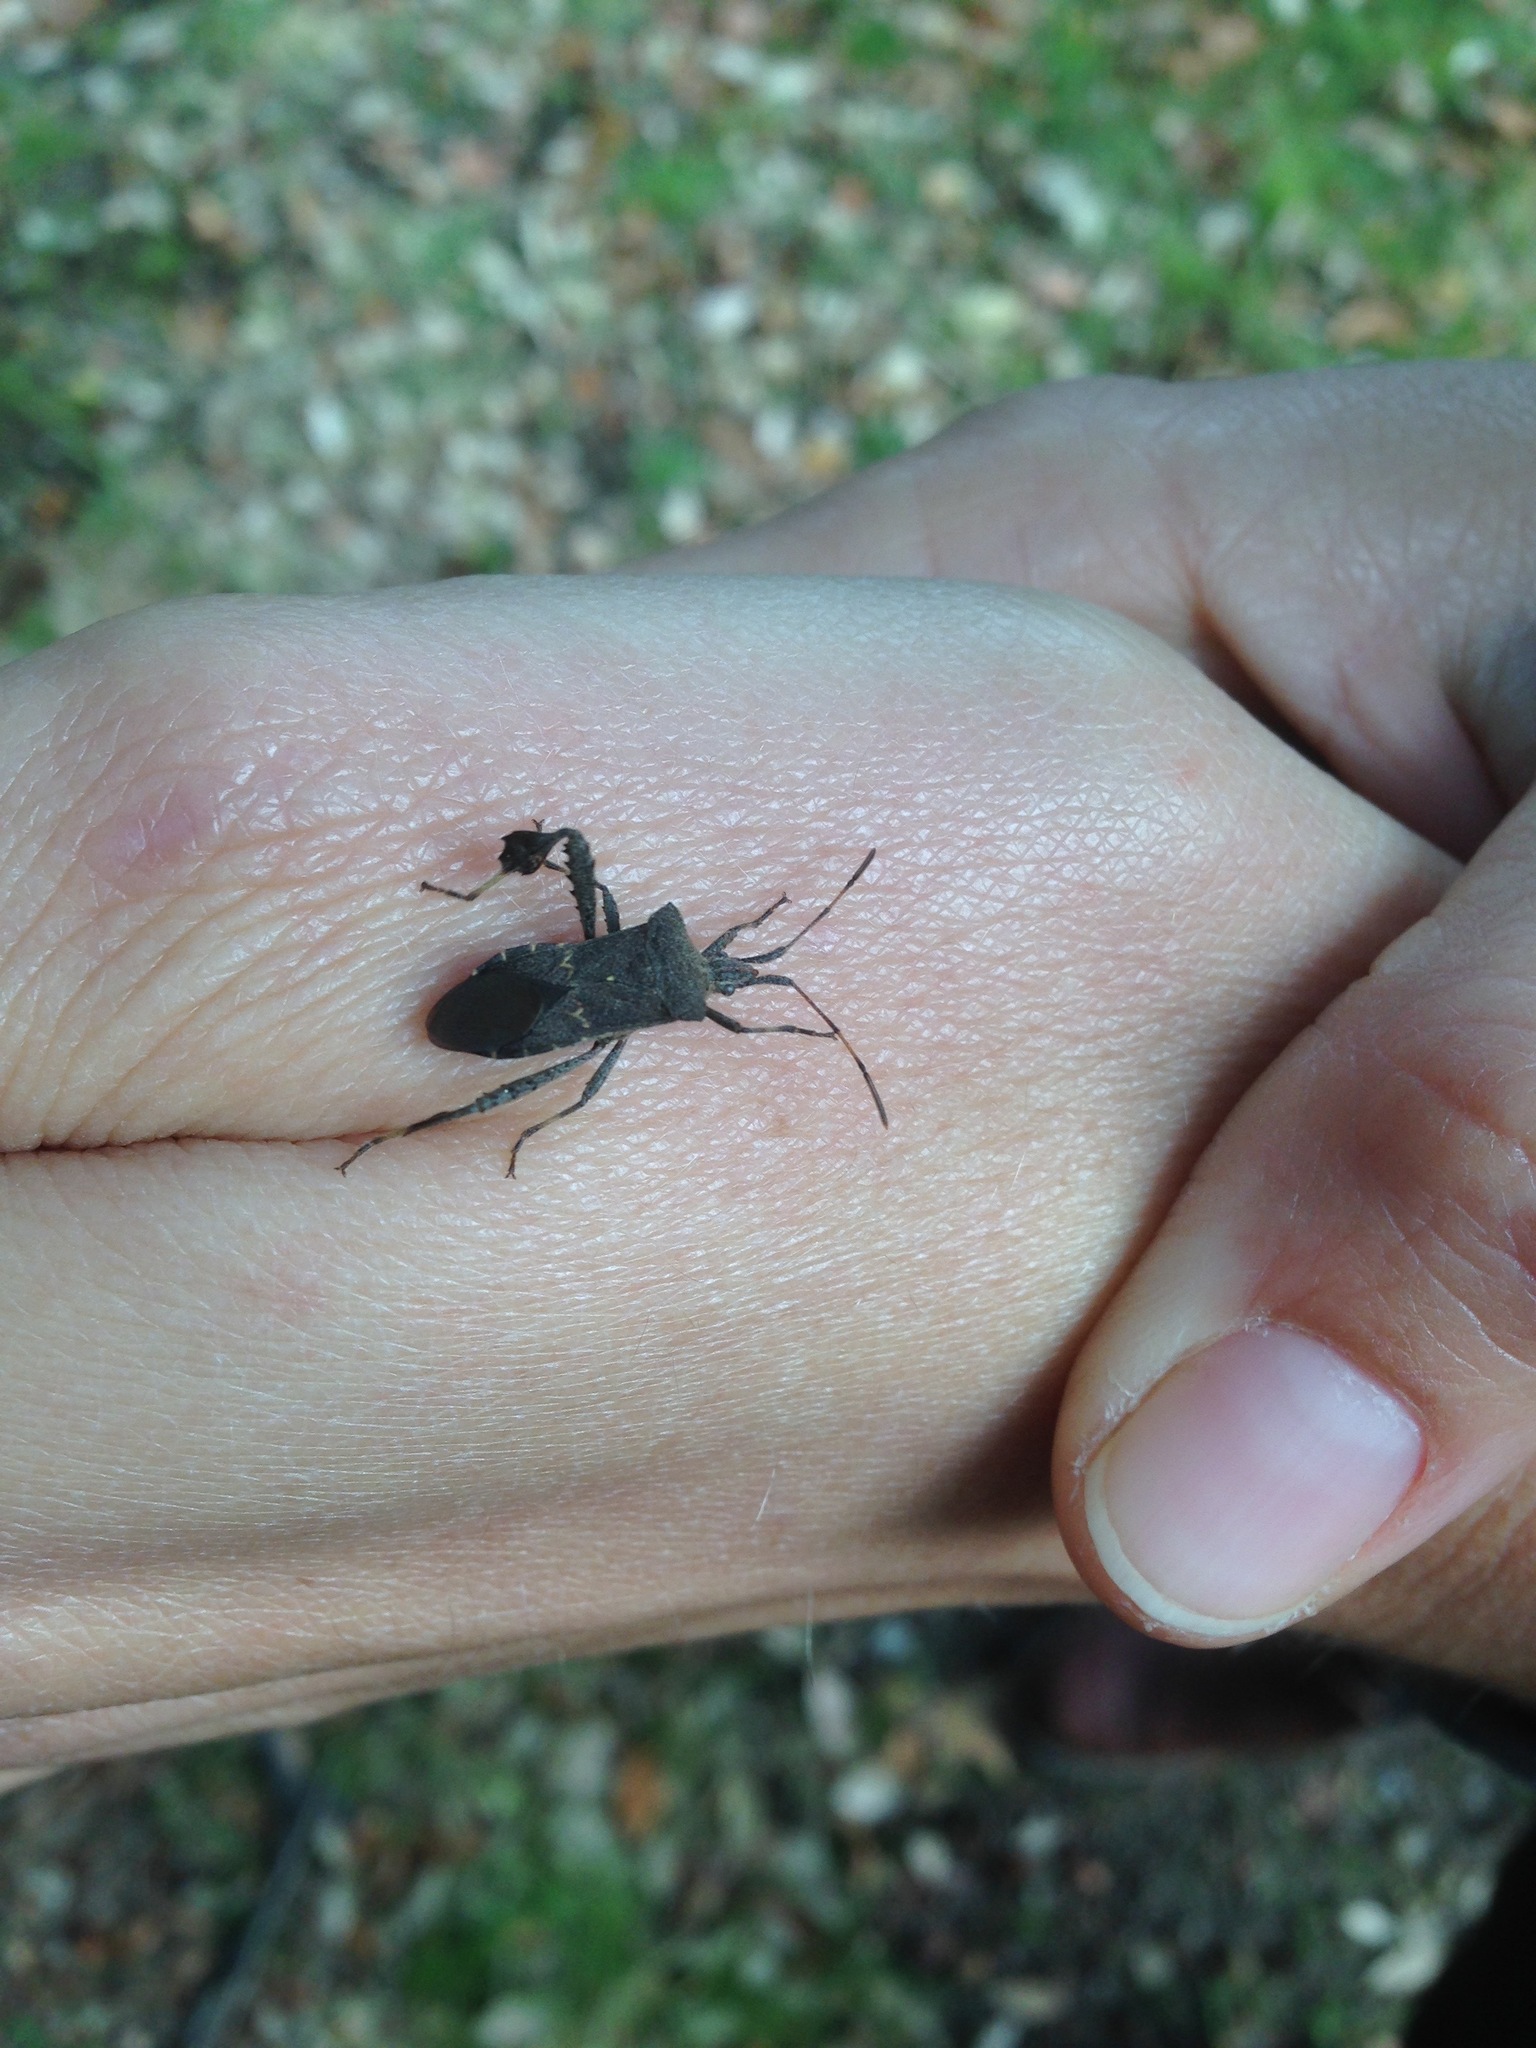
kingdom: Animalia
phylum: Arthropoda
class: Insecta
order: Hemiptera
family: Coreidae
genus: Leptoglossus
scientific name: Leptoglossus brevirostris
